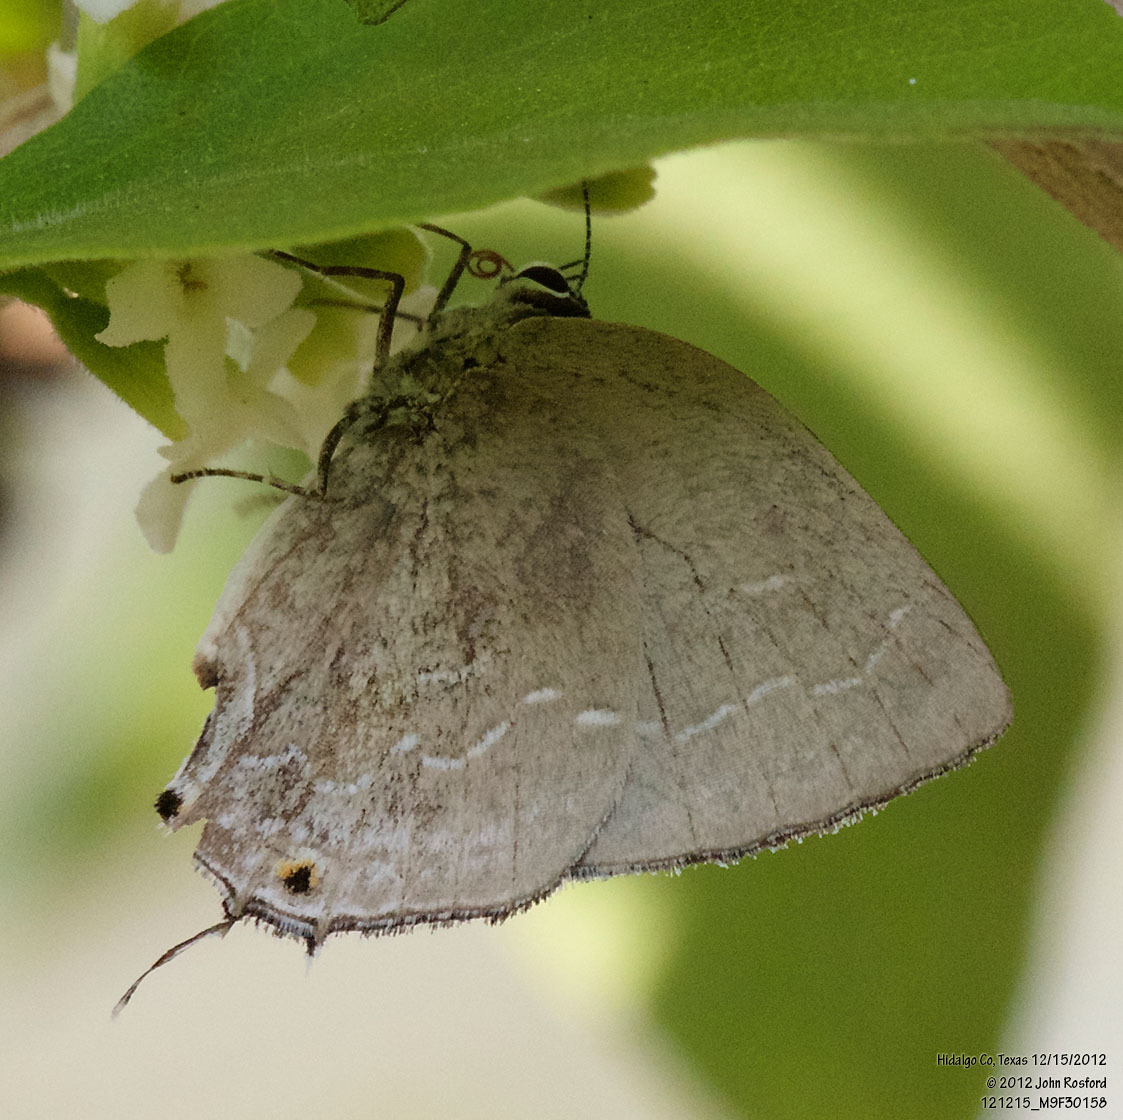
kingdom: Animalia
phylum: Arthropoda
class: Insecta
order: Lepidoptera
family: Lycaenidae
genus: Strephonota
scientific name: Strephonota tephraeus
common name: Pearly-gray hairstreak
